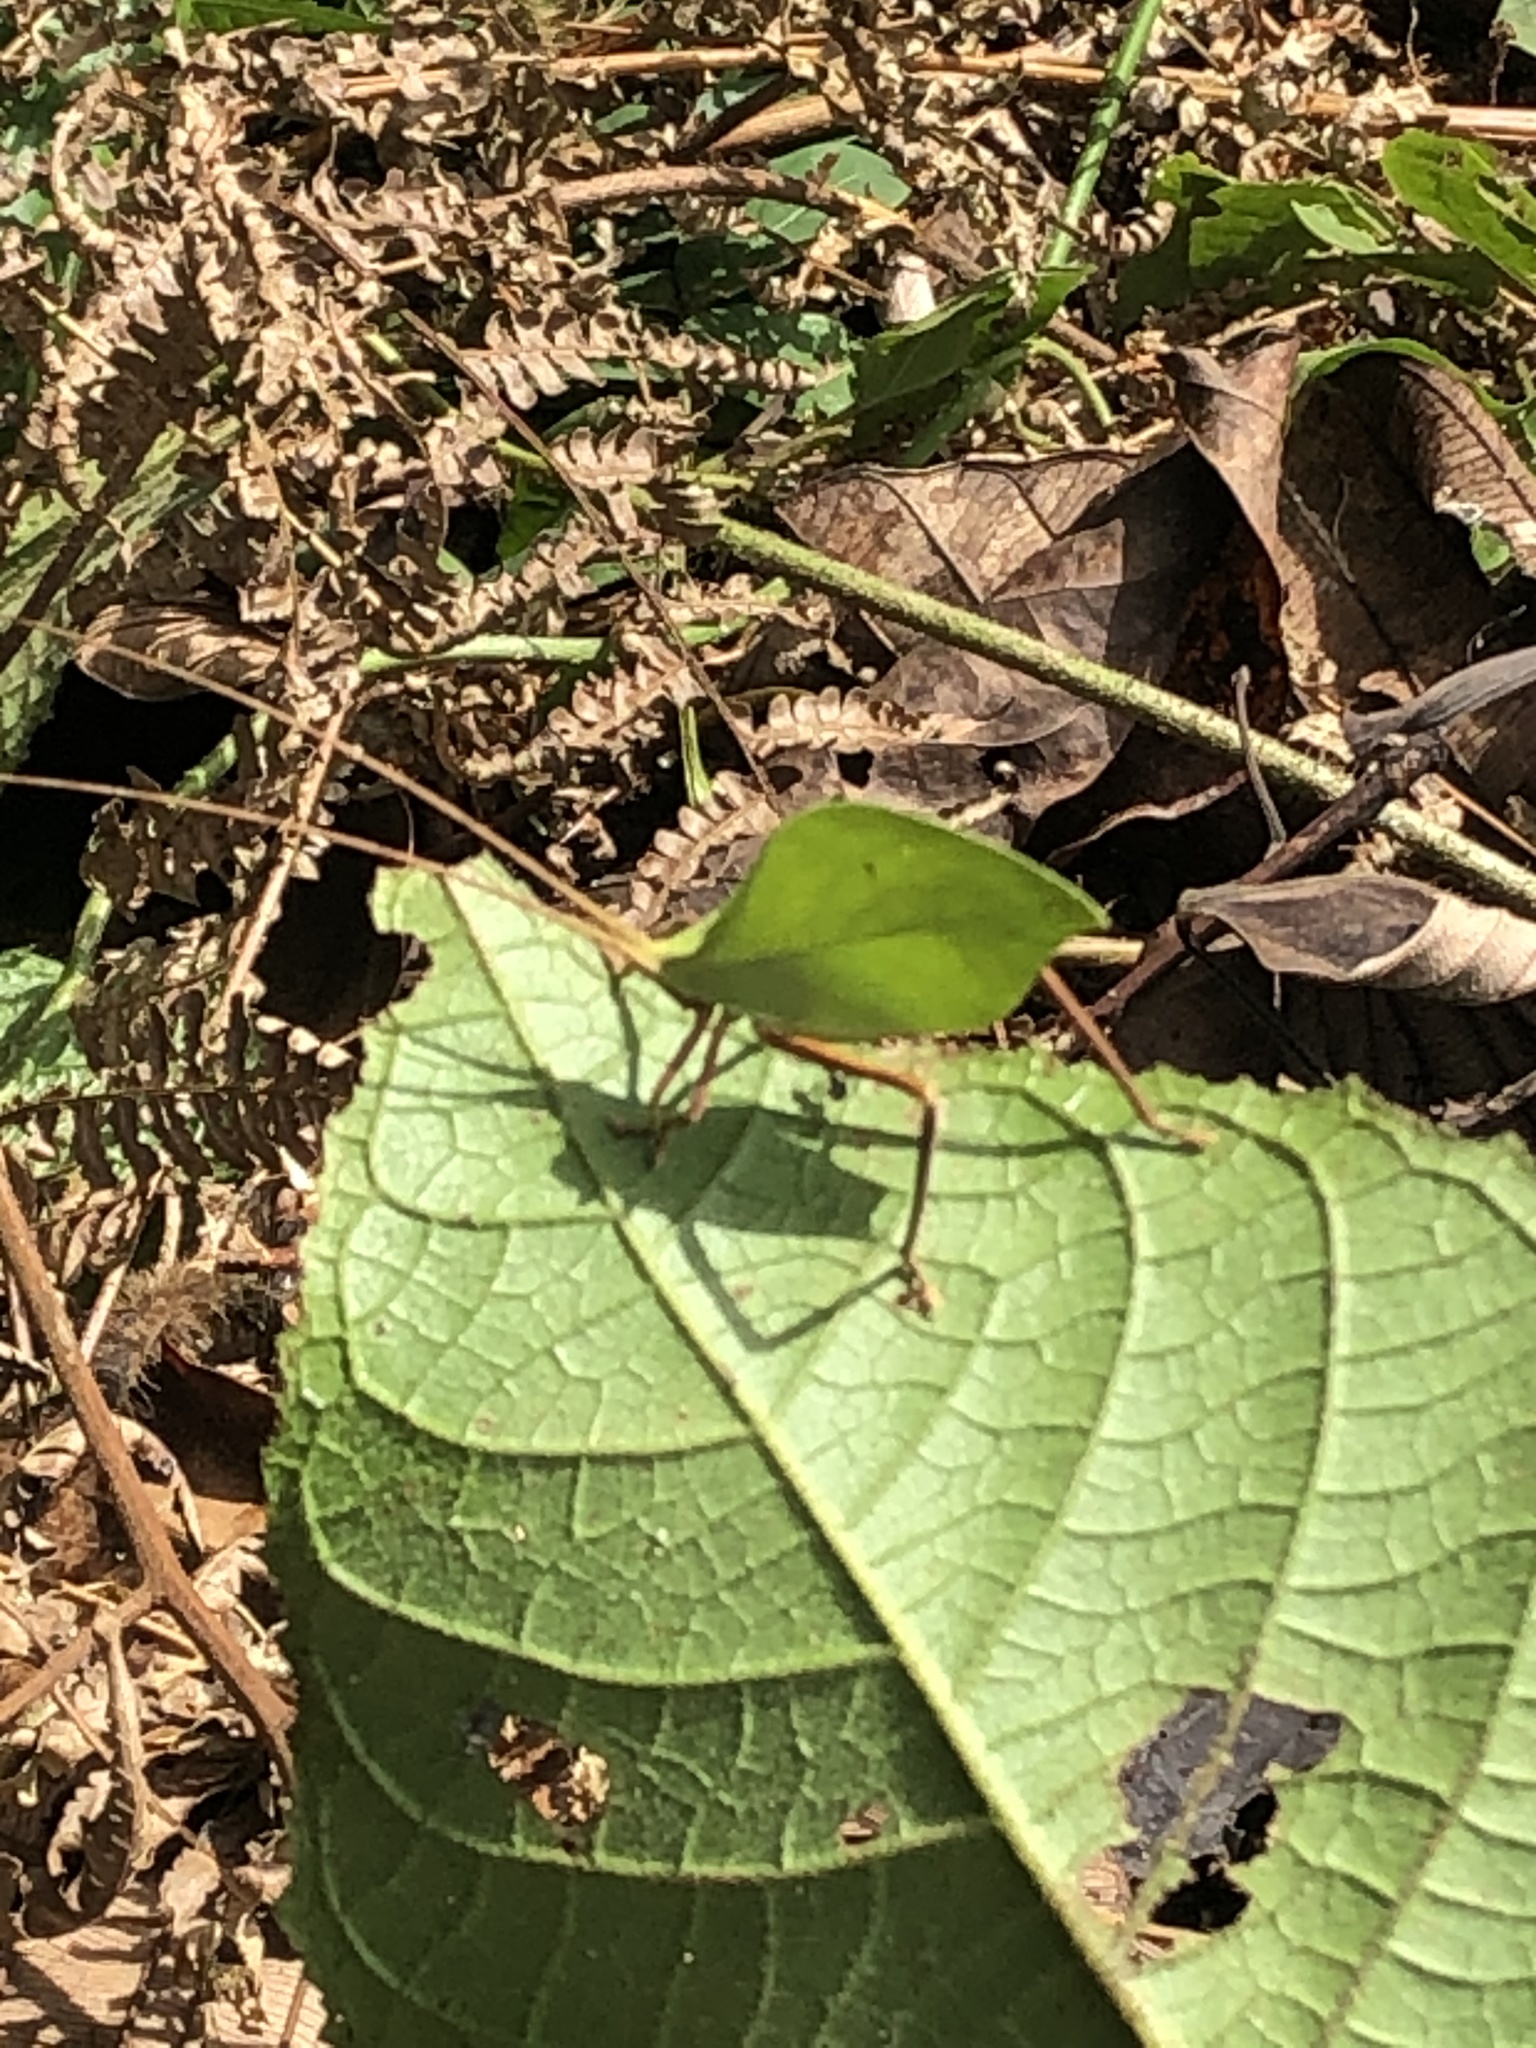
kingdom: Animalia
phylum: Arthropoda
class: Insecta
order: Orthoptera
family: Tettigoniidae
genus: Roxelana
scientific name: Roxelana crassicornis
